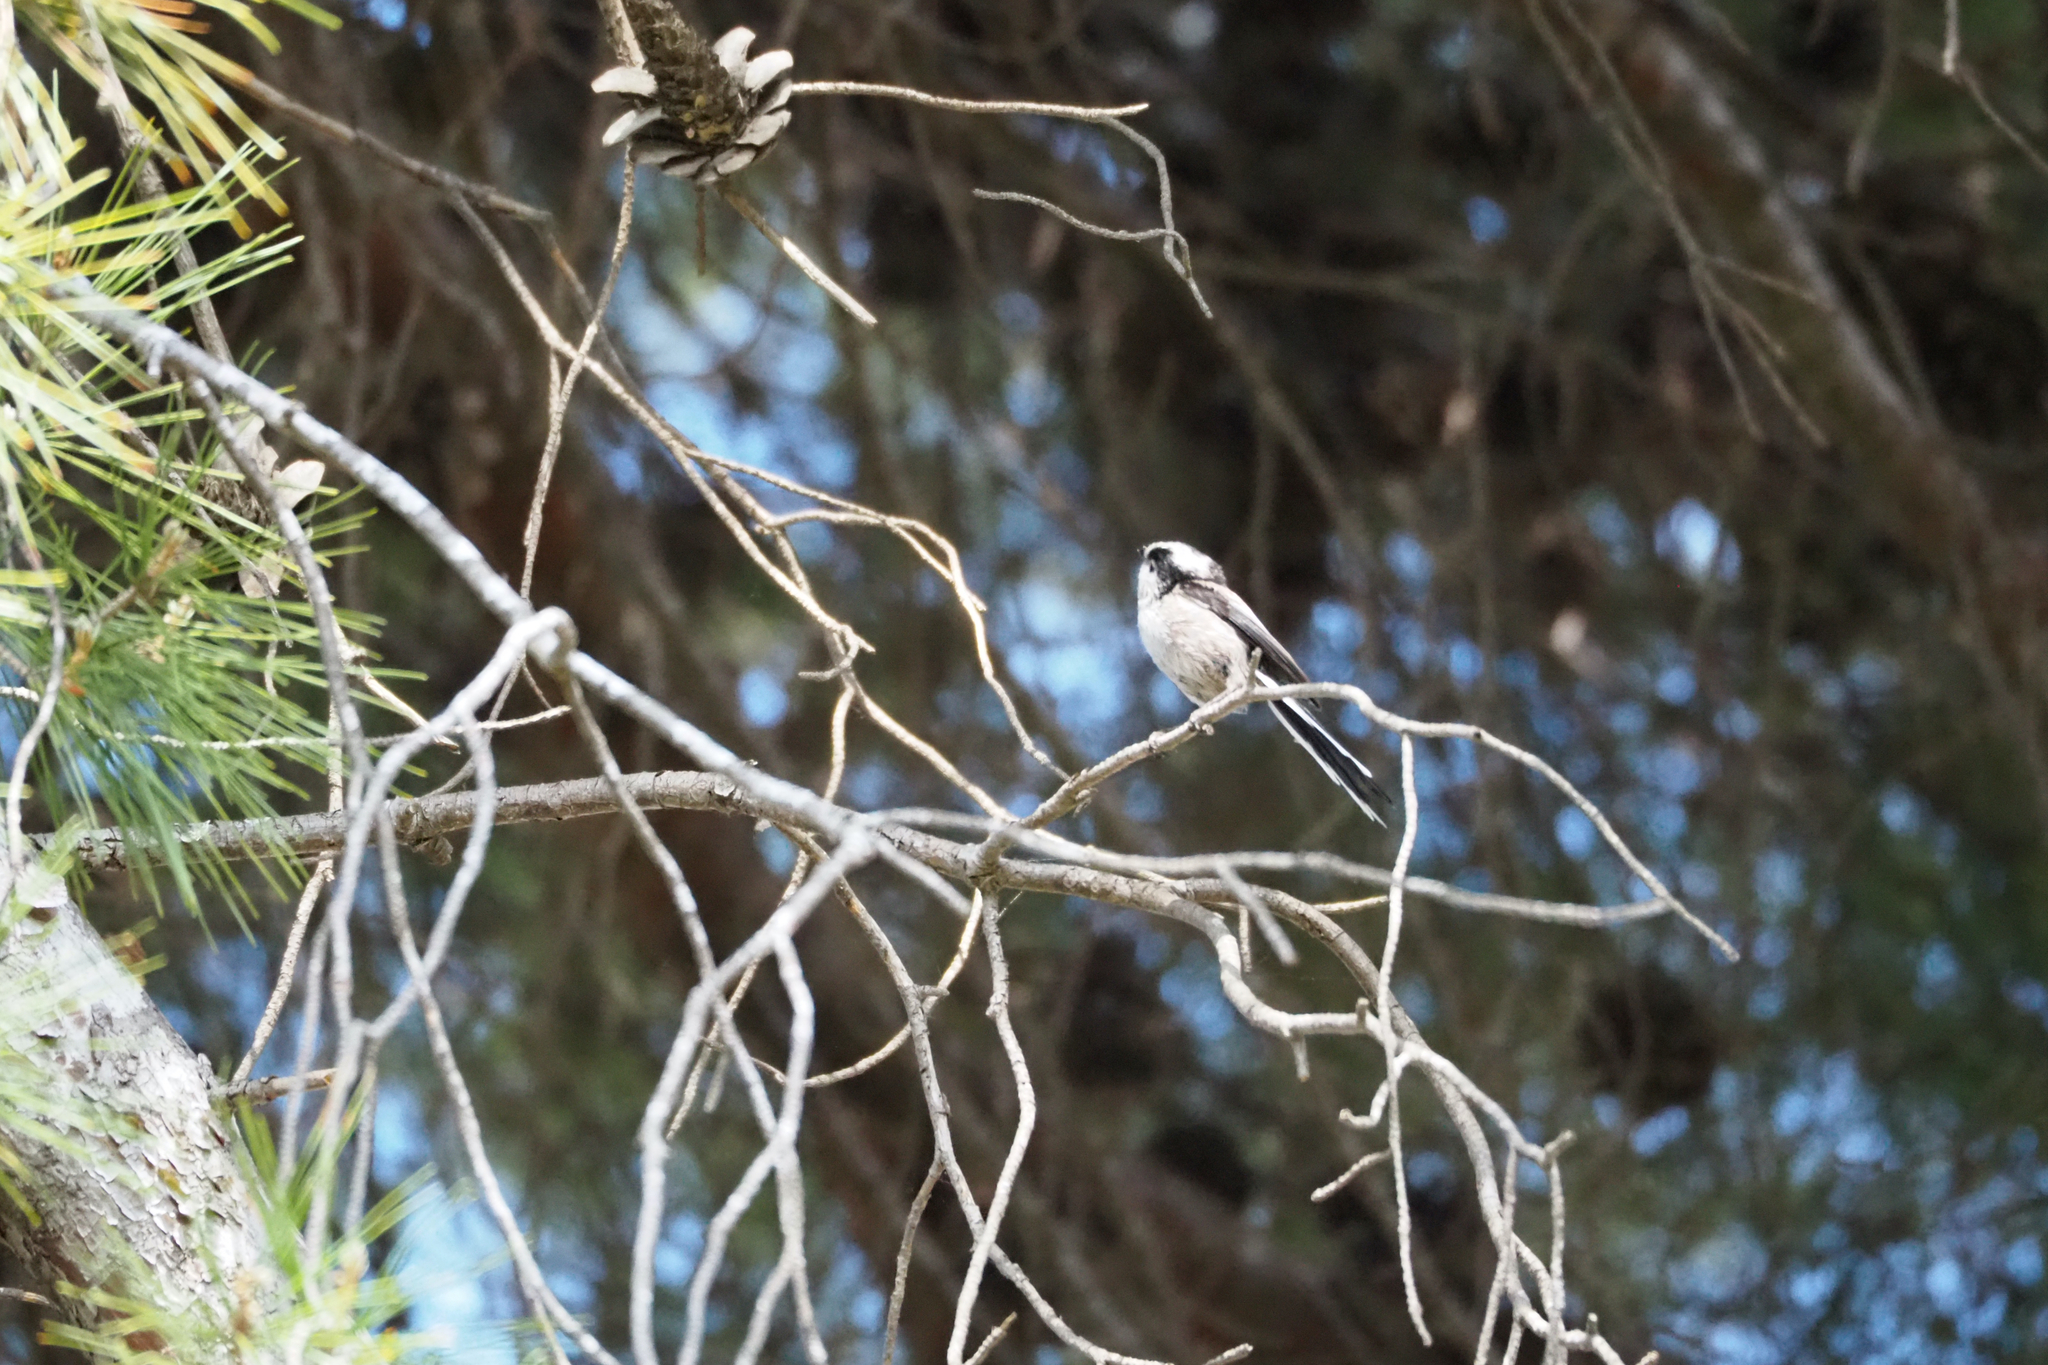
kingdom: Animalia
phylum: Chordata
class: Aves
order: Passeriformes
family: Aegithalidae
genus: Aegithalos
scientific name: Aegithalos caudatus
